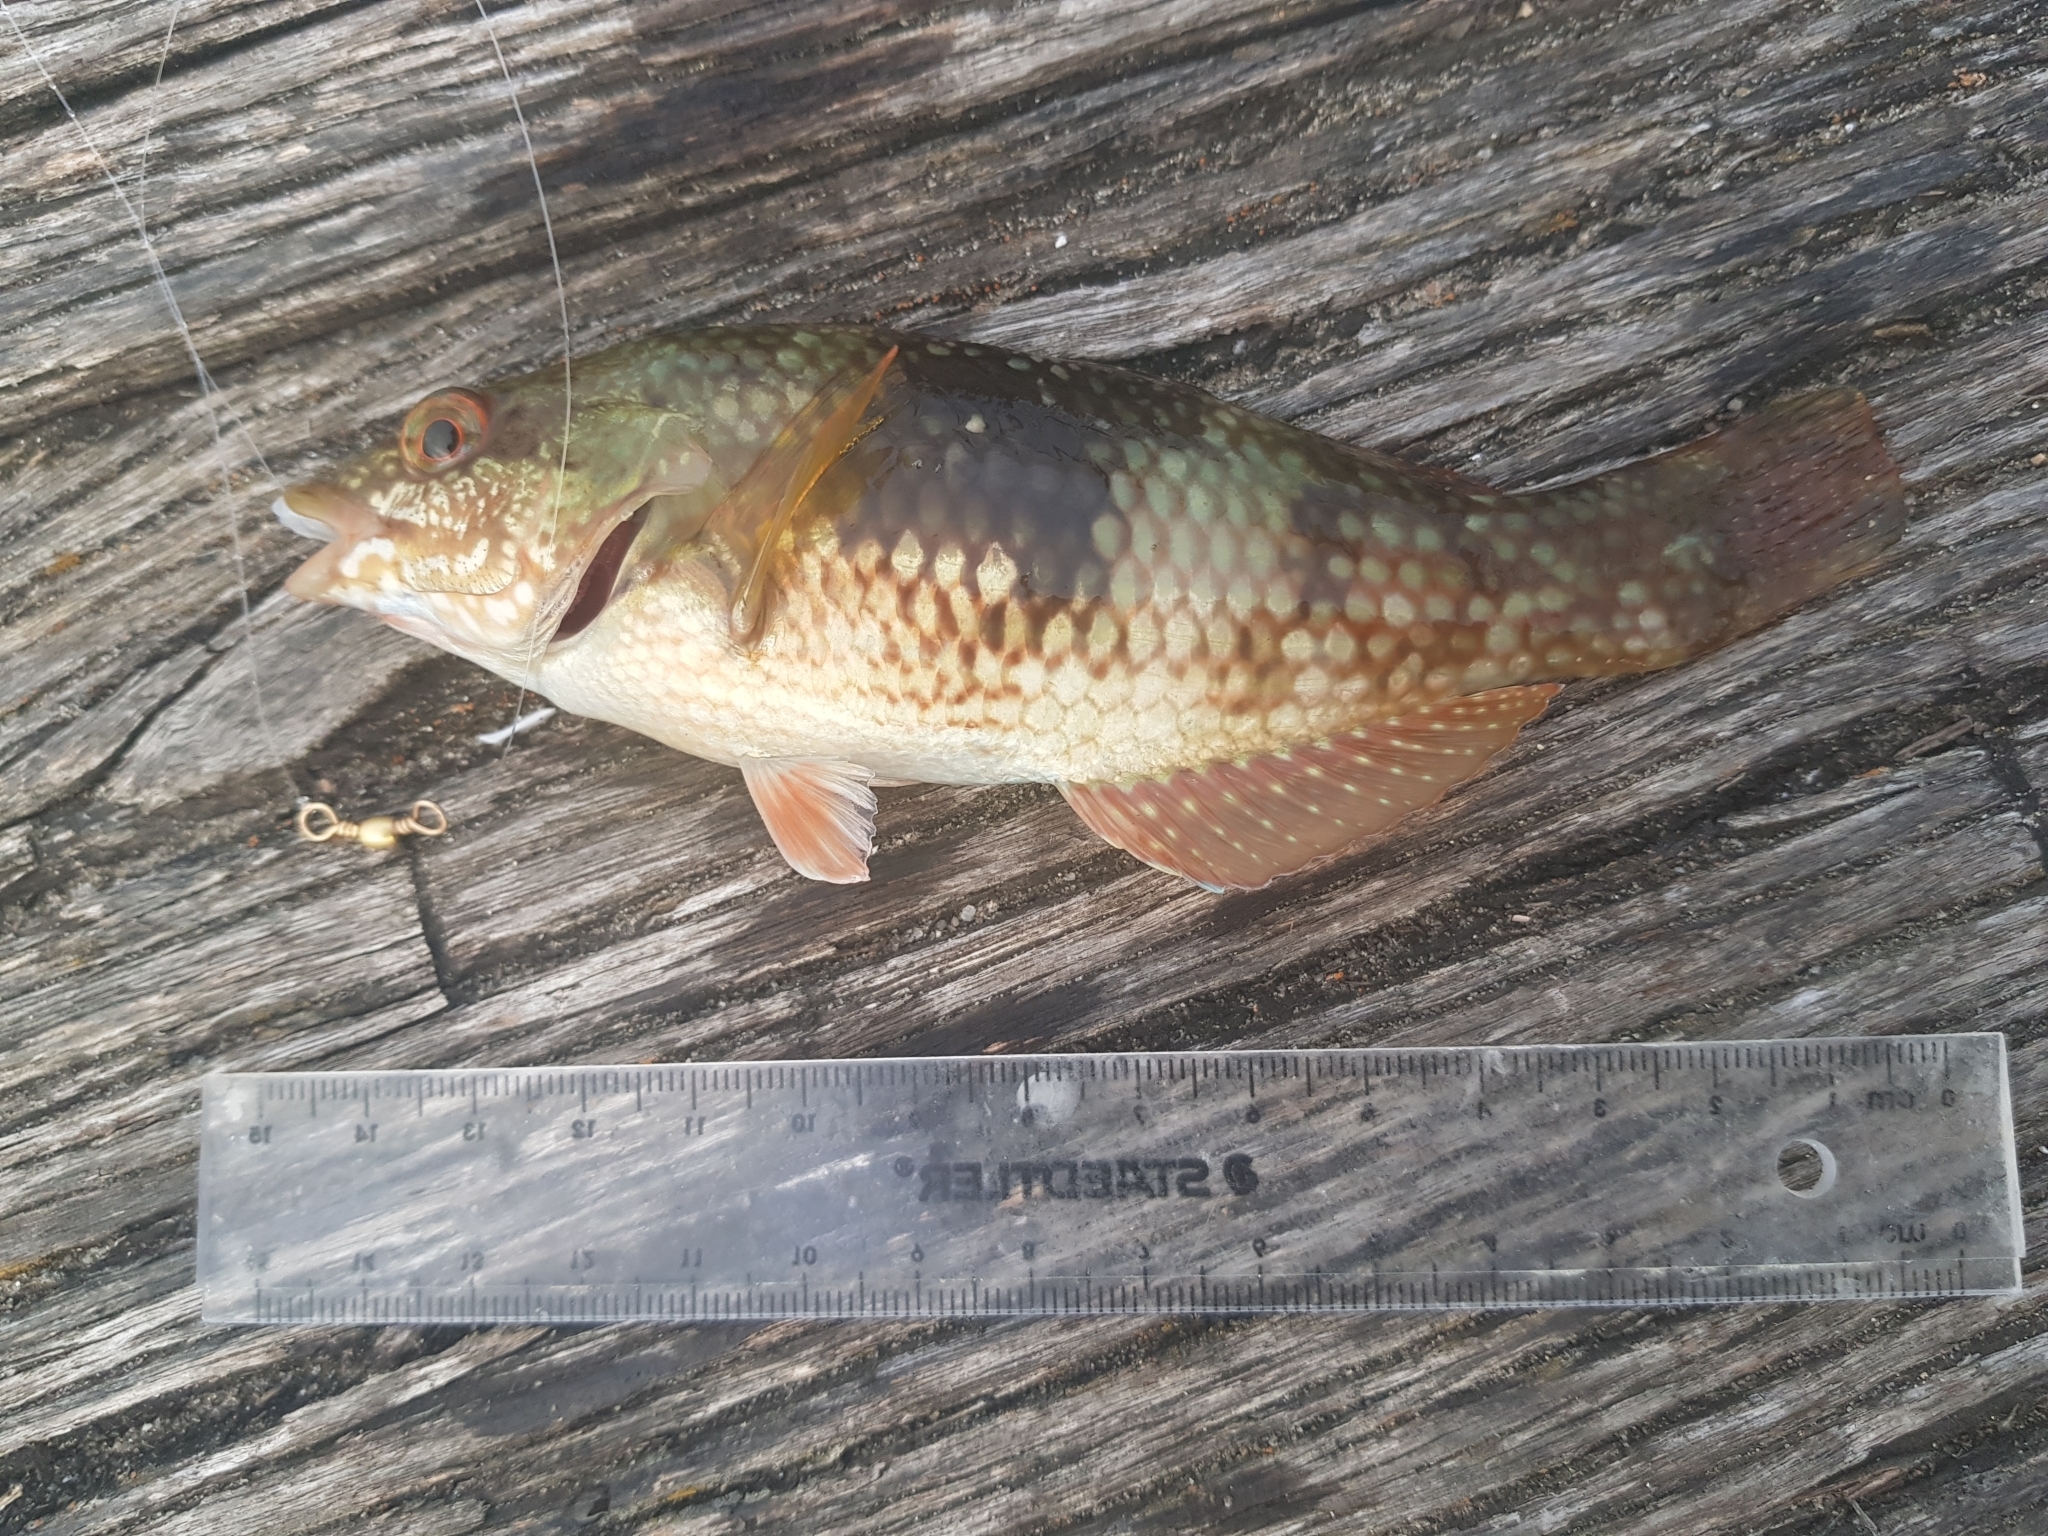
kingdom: Animalia
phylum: Chordata
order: Perciformes
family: Labridae
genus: Notolabrus
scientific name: Notolabrus tetricus
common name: Blue-throated parrotfish
